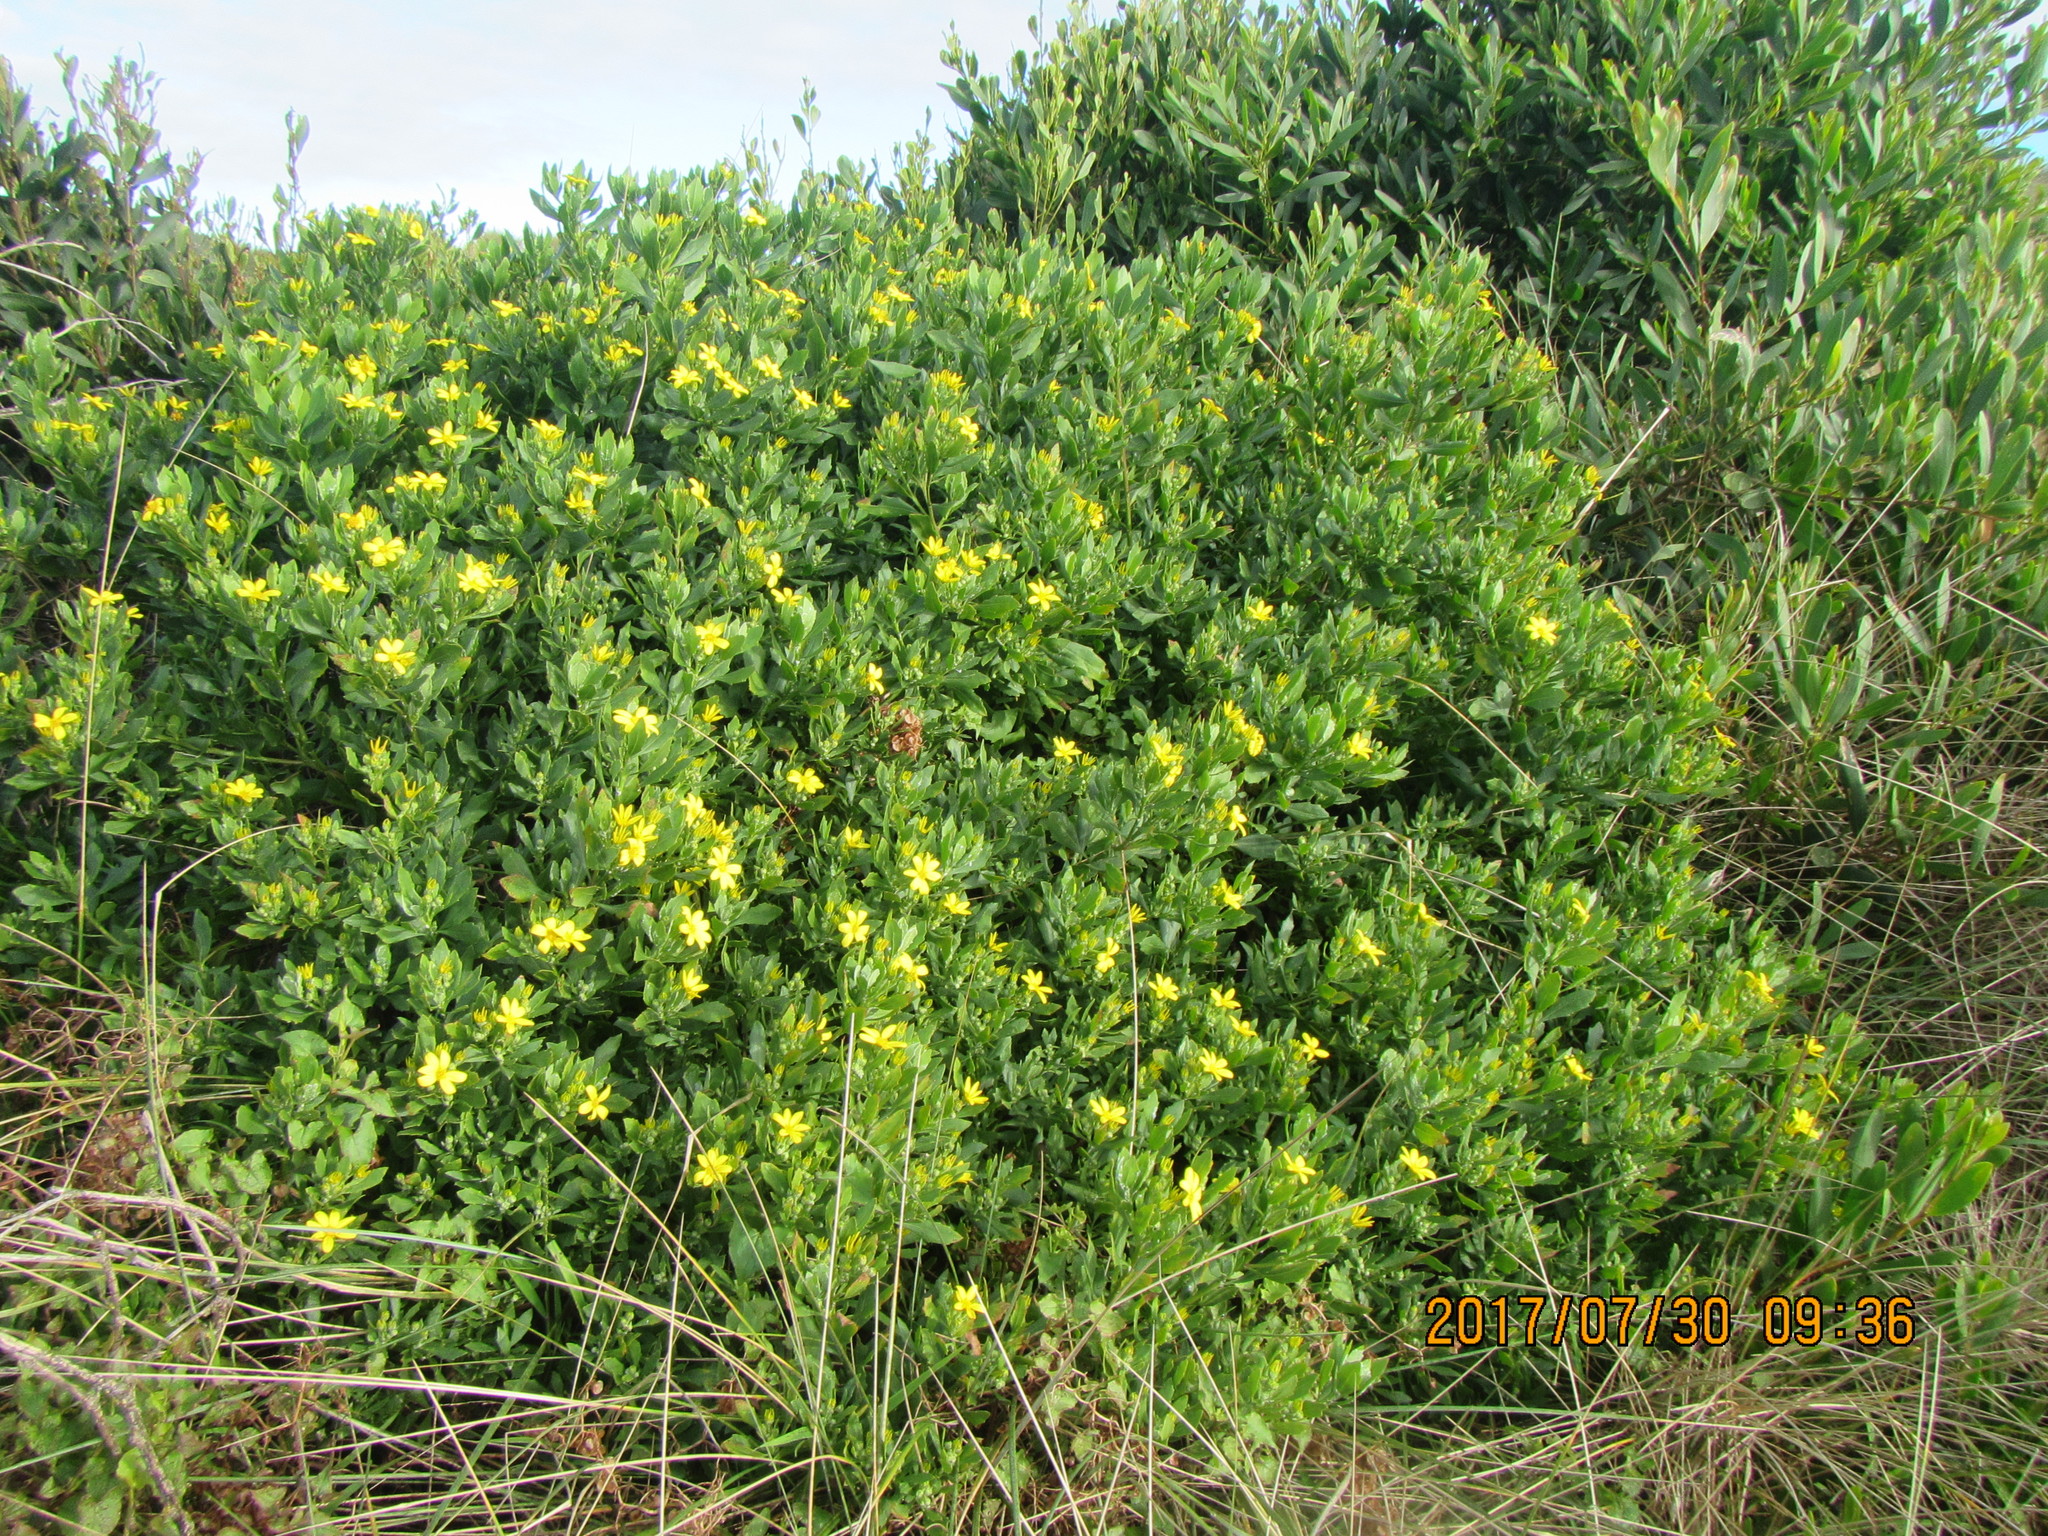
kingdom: Plantae
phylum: Tracheophyta
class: Magnoliopsida
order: Asterales
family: Asteraceae
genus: Osteospermum
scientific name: Osteospermum moniliferum
